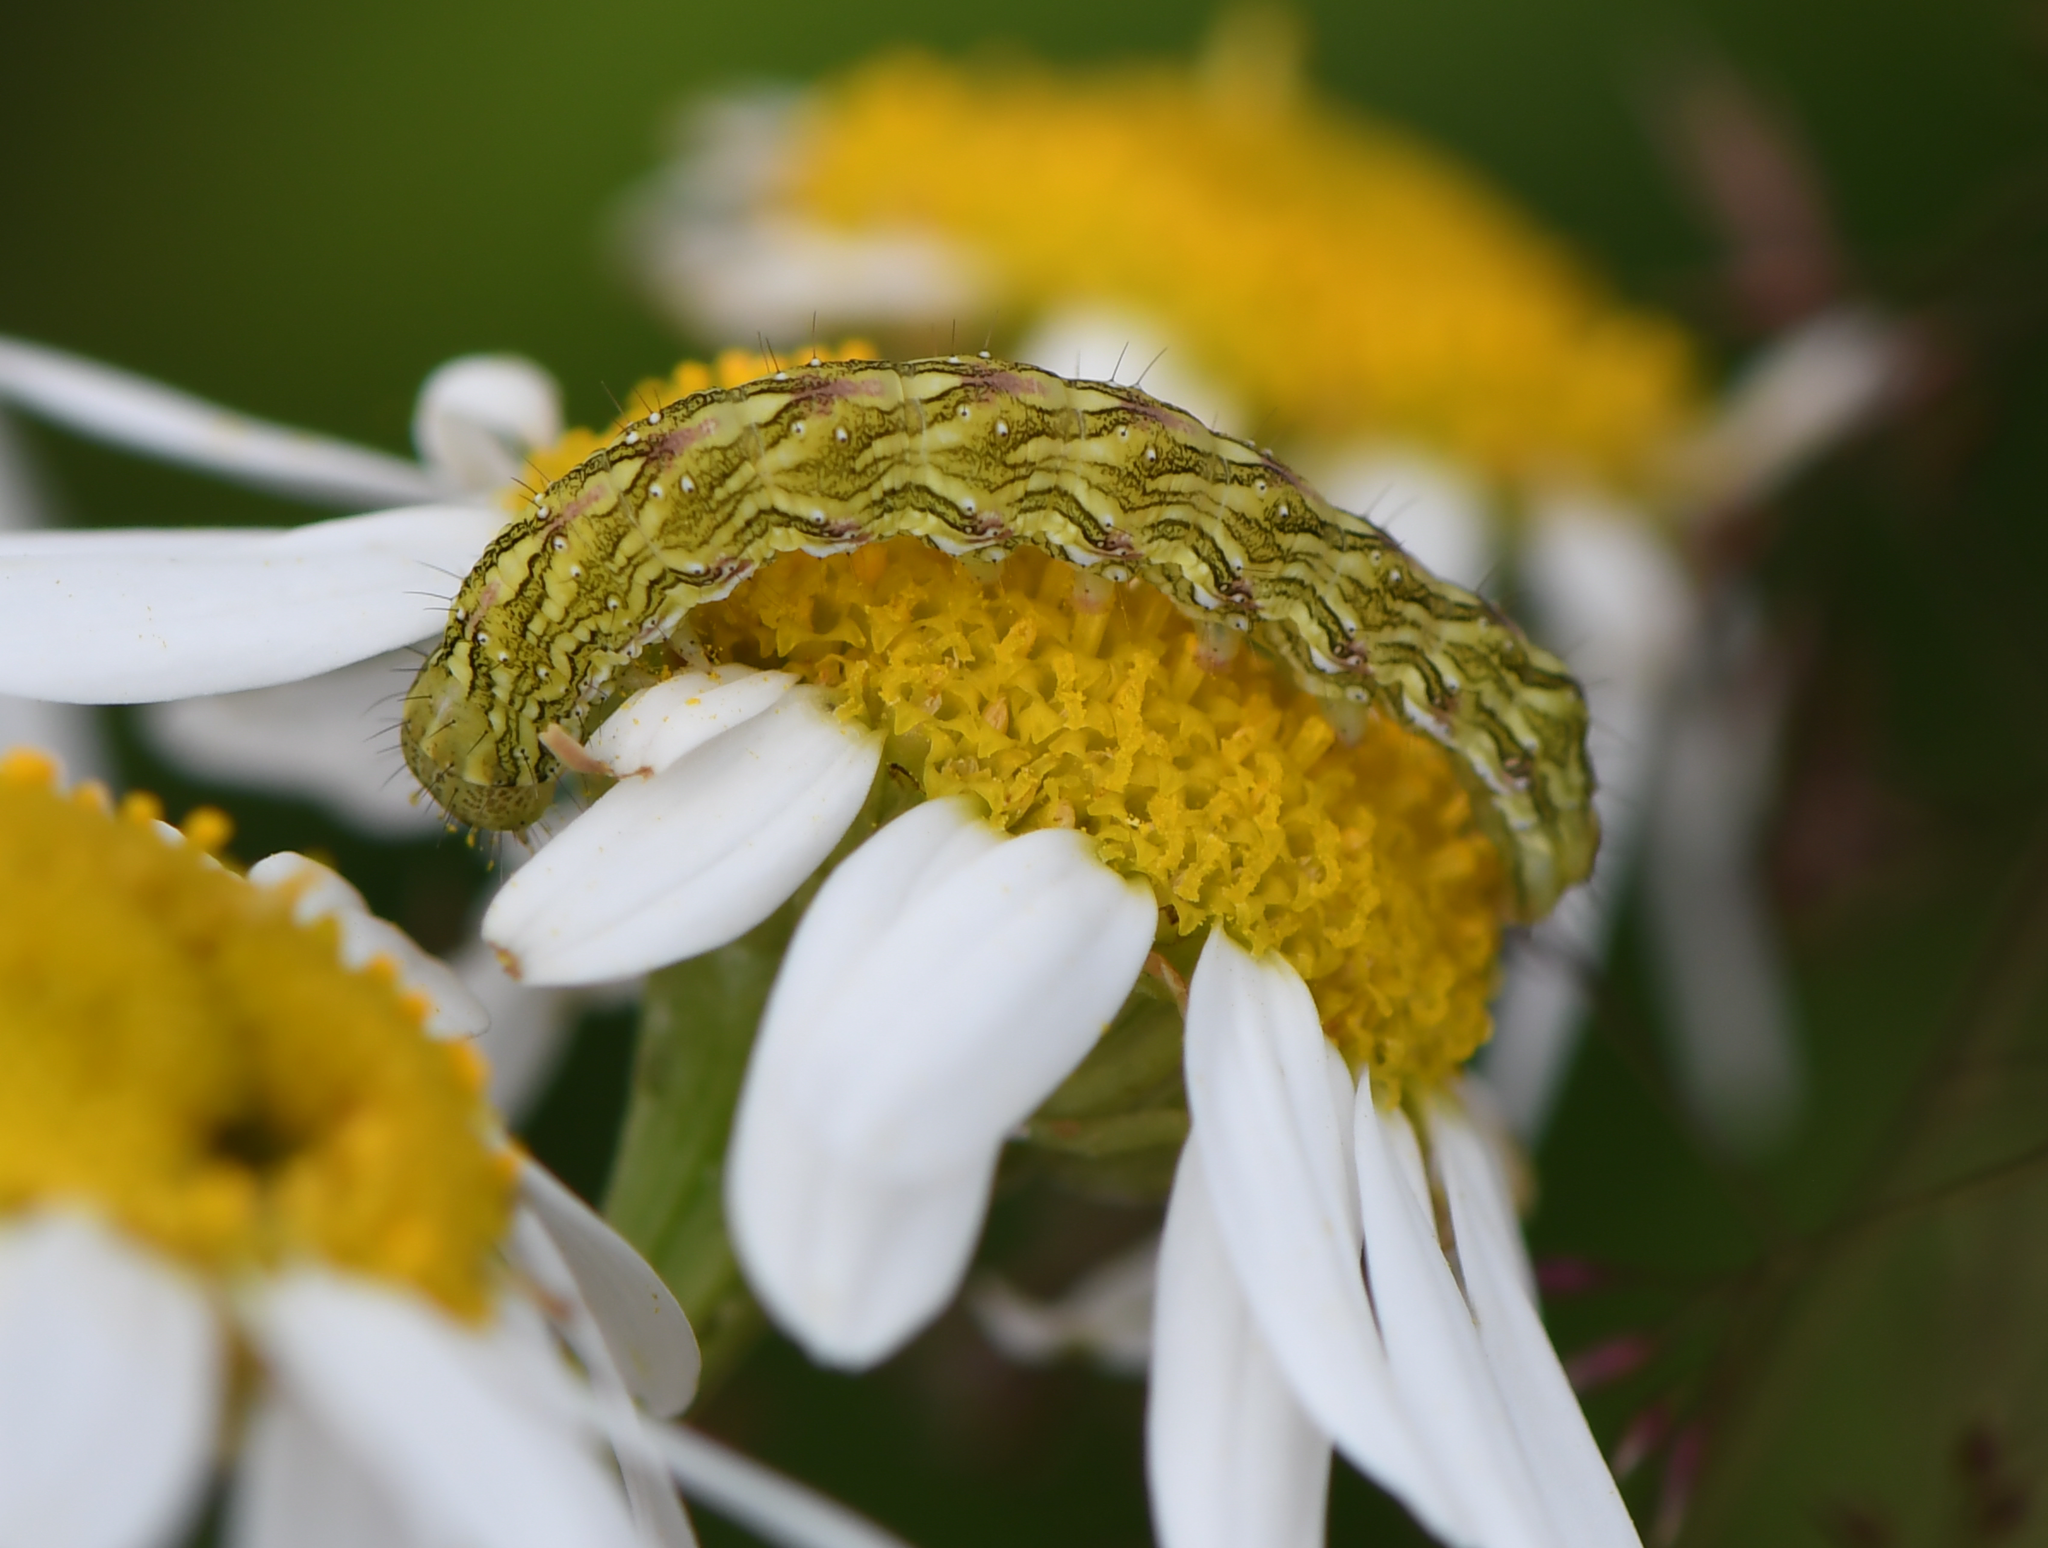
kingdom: Animalia
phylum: Arthropoda
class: Insecta
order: Lepidoptera
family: Noctuidae
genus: Cucullia
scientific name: Cucullia chamomillae
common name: Chamomile shark
